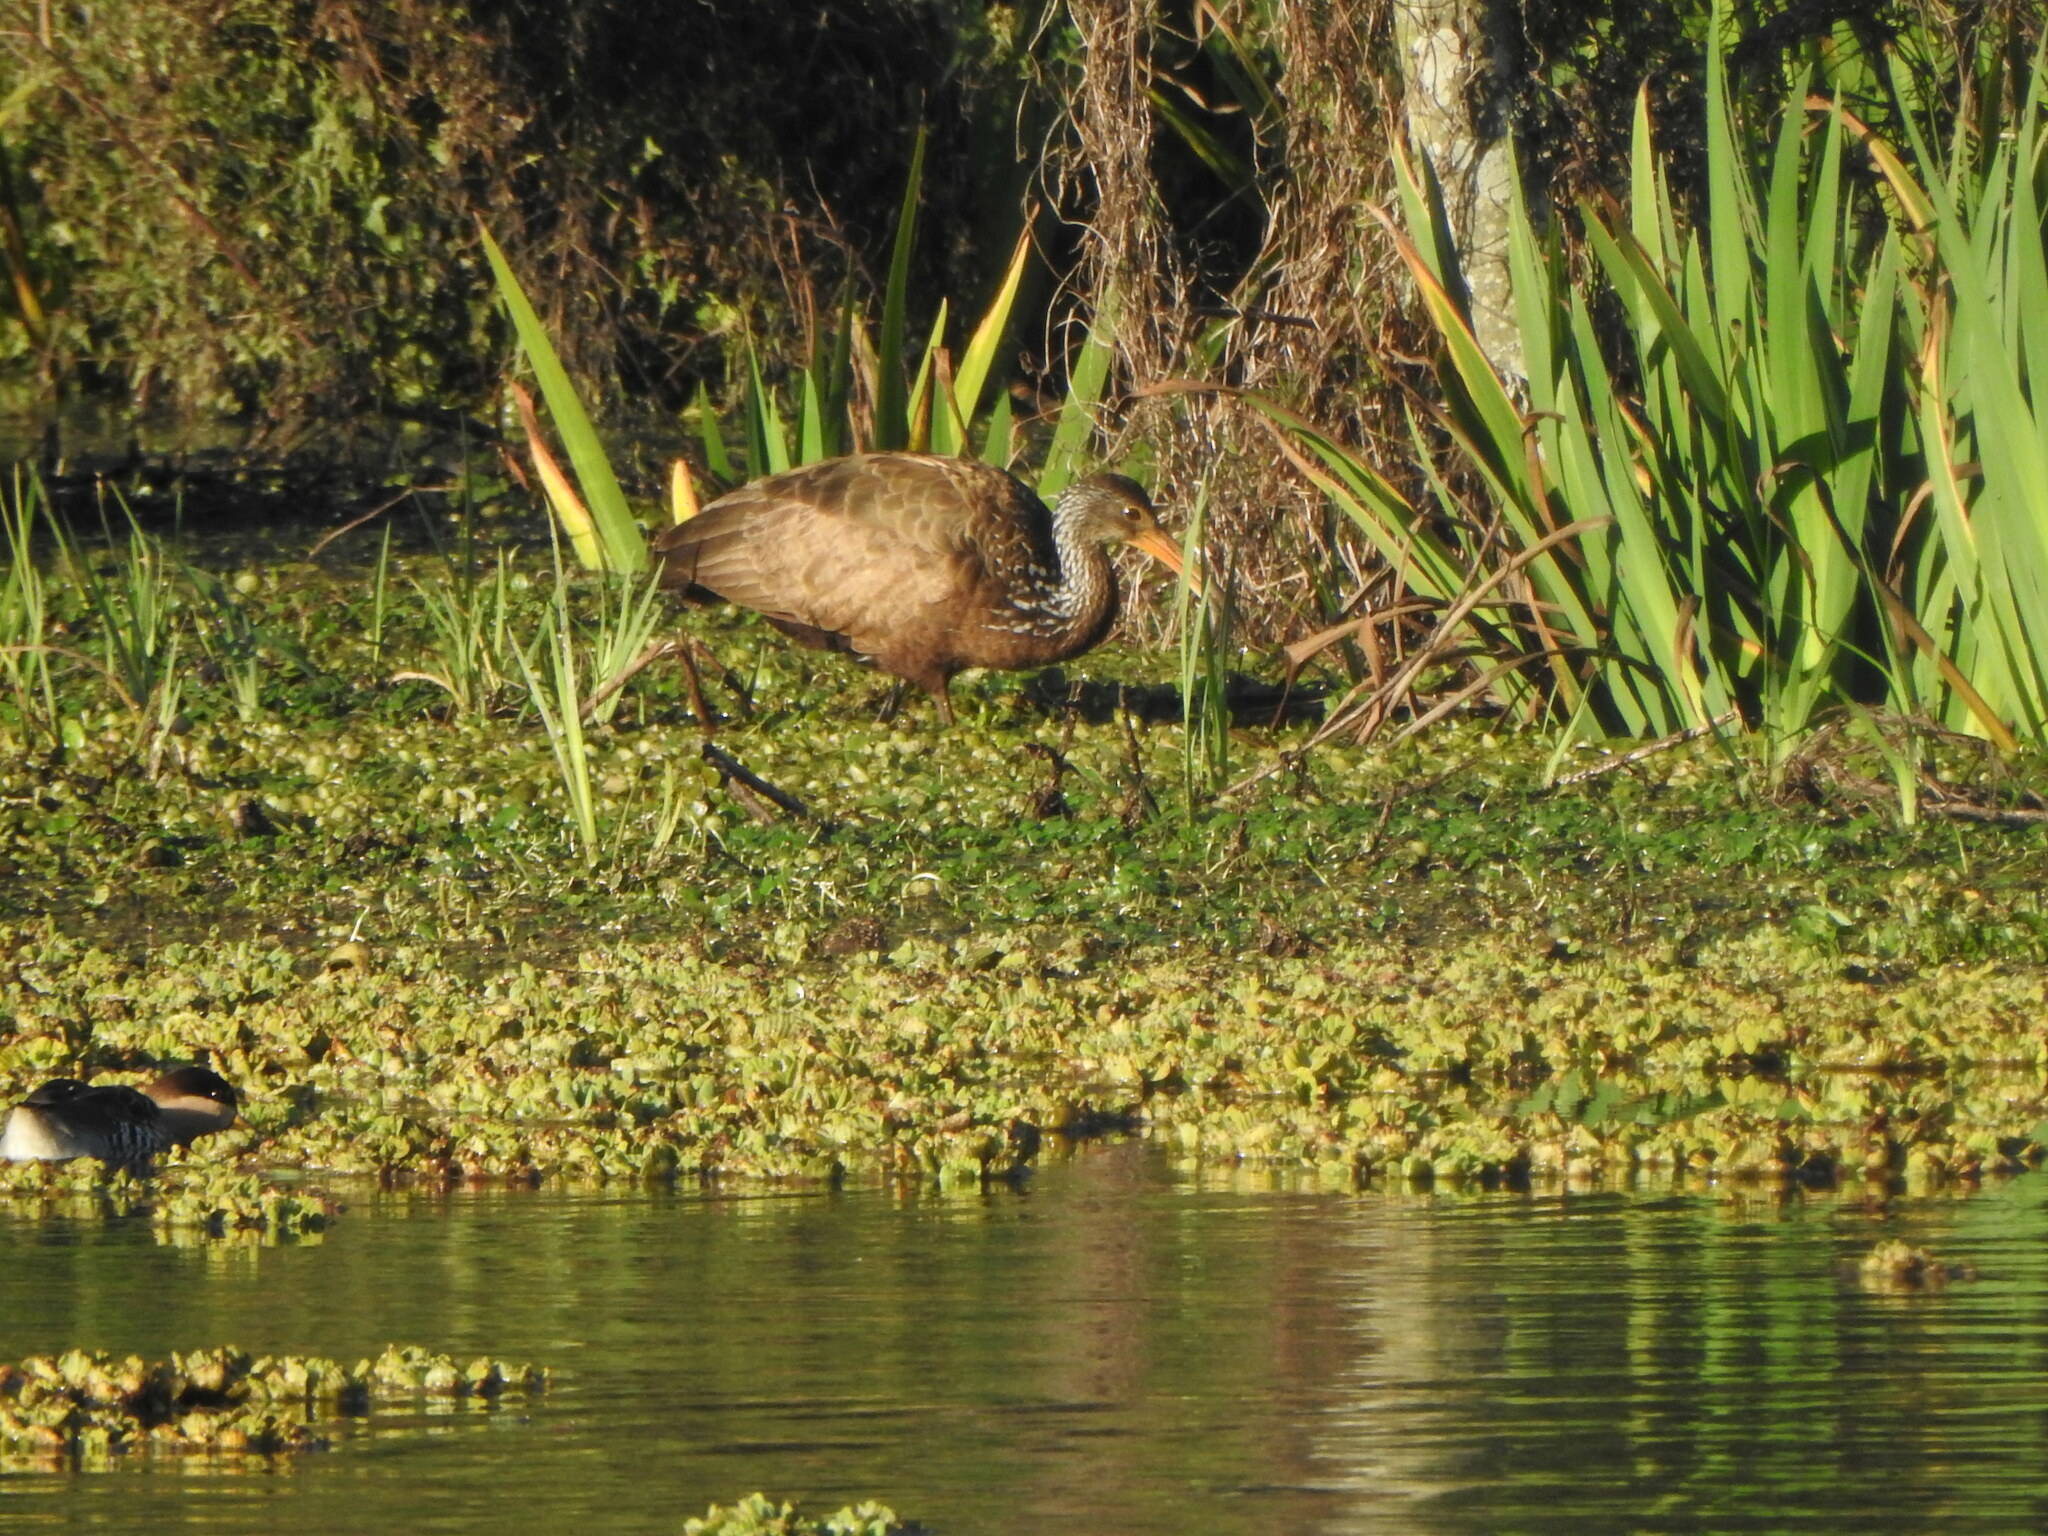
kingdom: Animalia
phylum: Chordata
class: Aves
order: Gruiformes
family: Aramidae
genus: Aramus
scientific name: Aramus guarauna
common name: Limpkin
